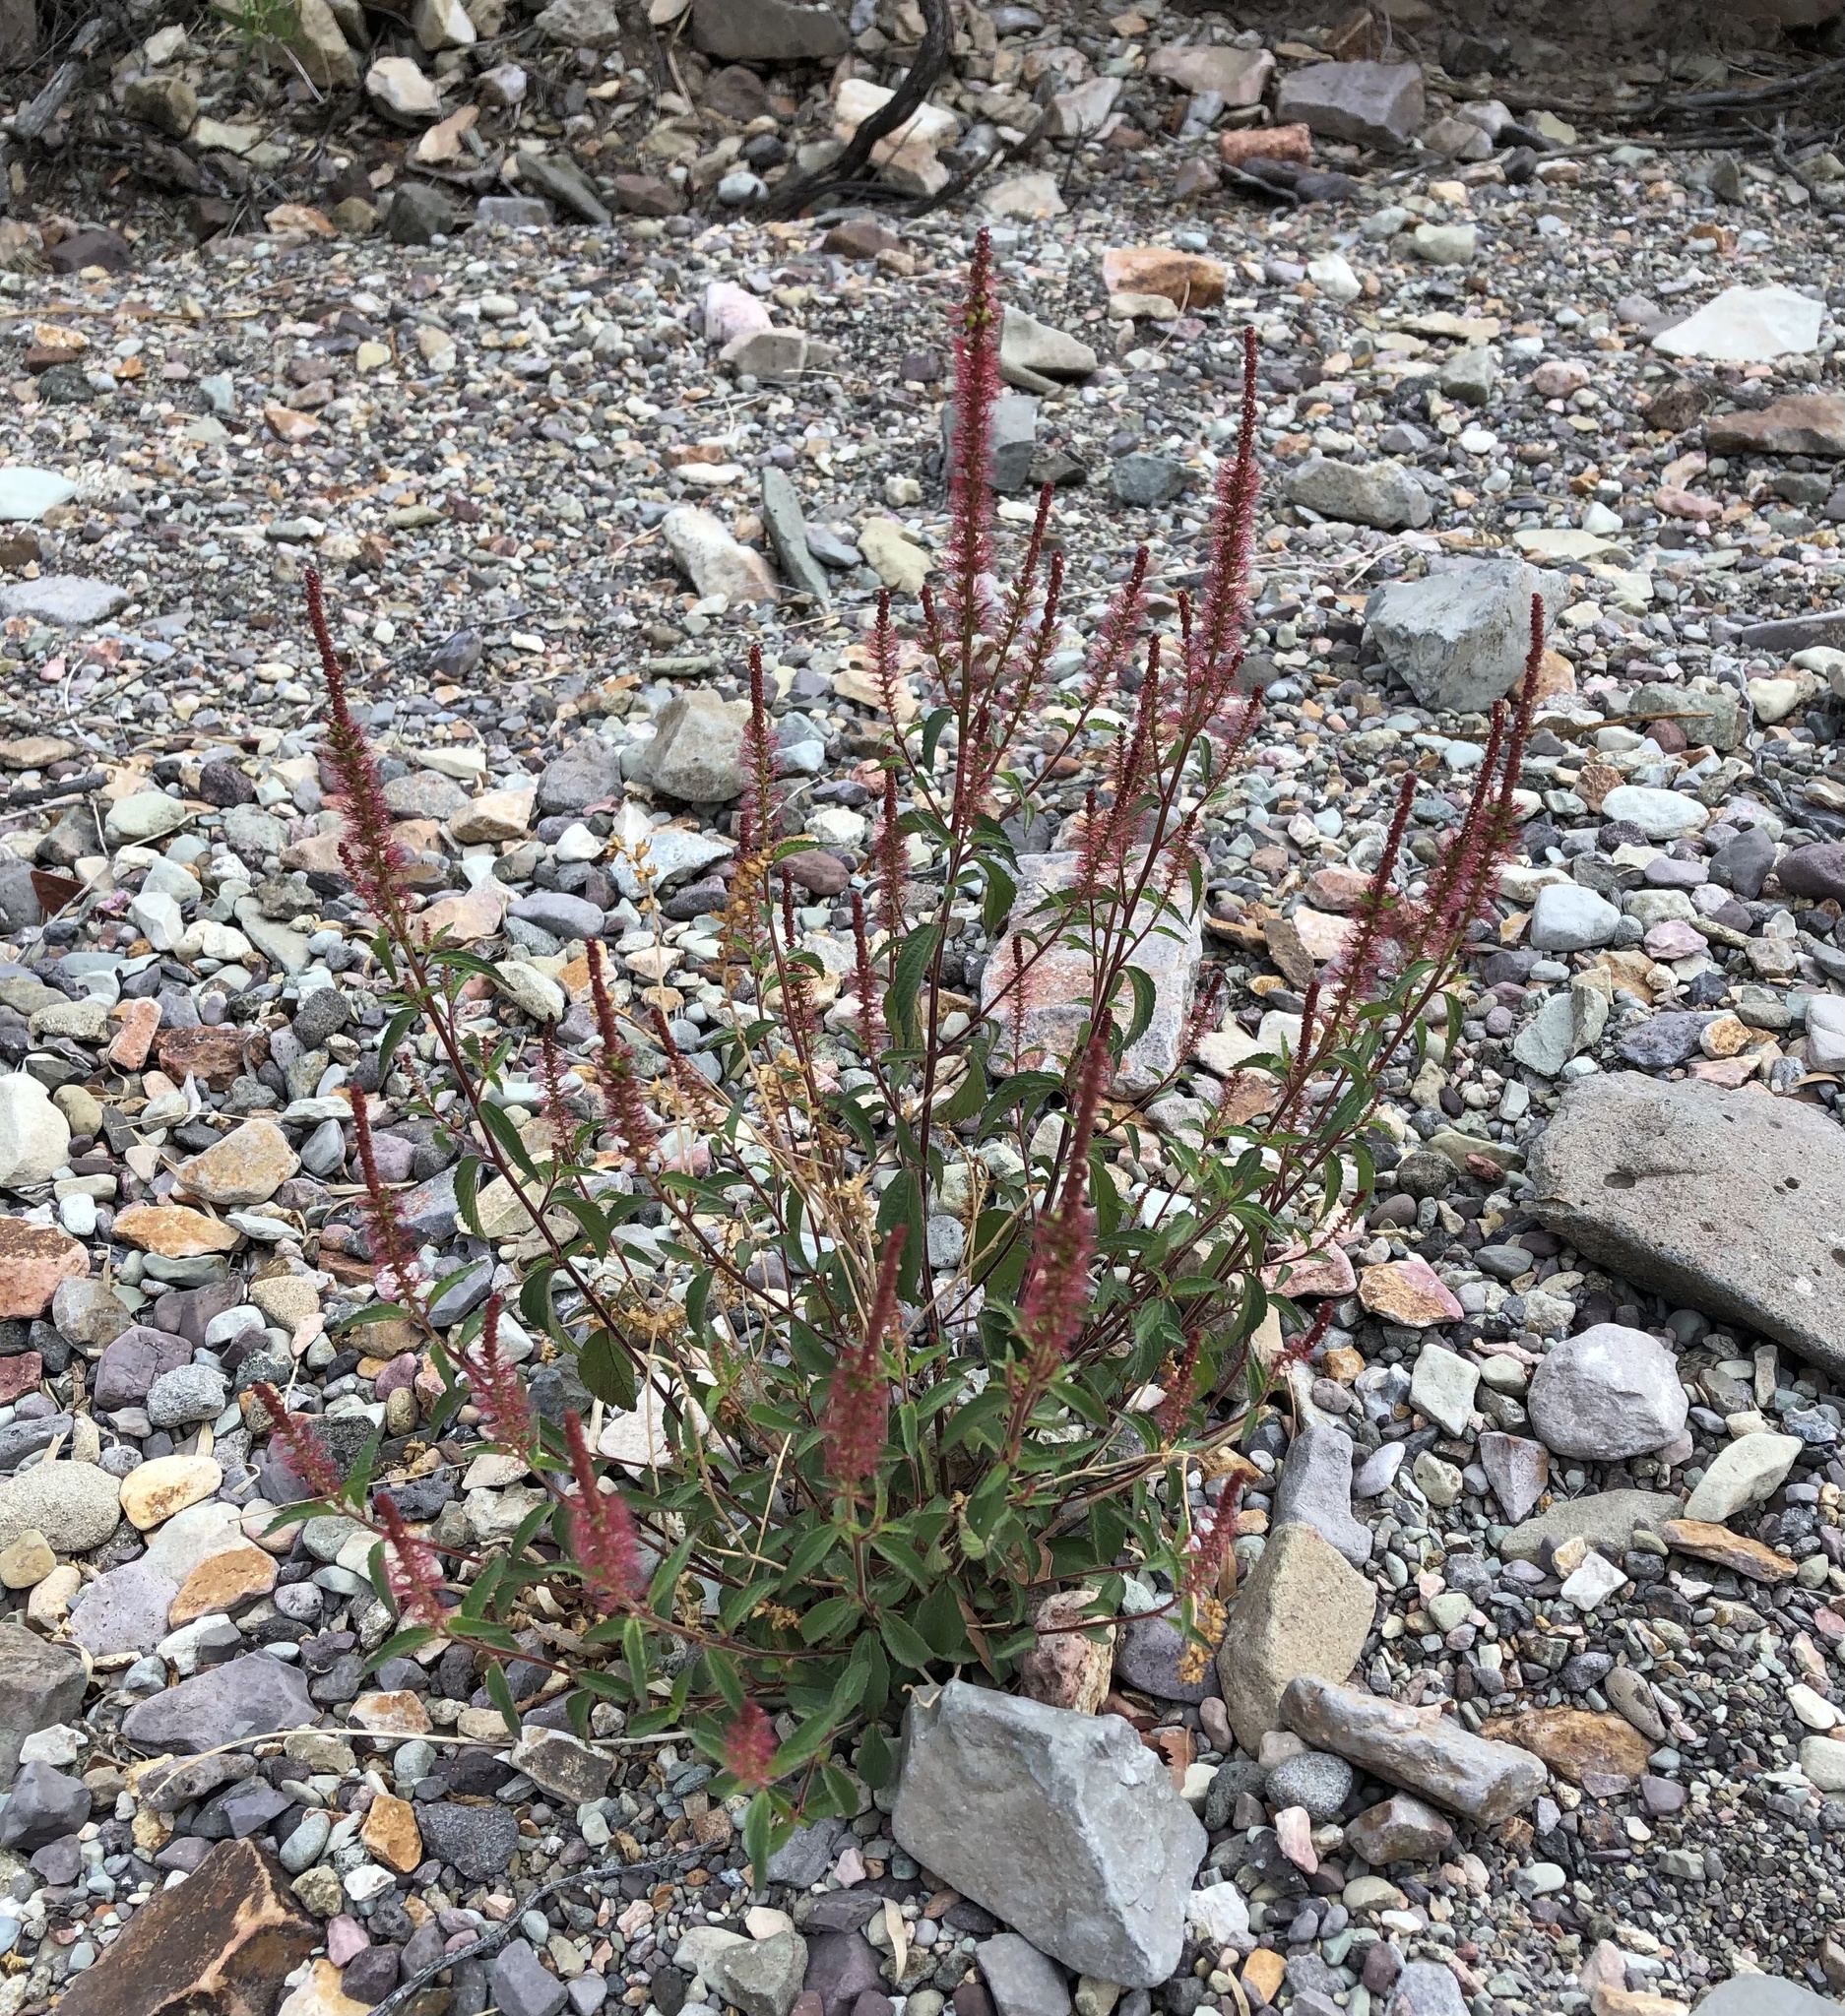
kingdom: Plantae
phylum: Tracheophyta
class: Magnoliopsida
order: Malpighiales
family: Euphorbiaceae
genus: Acalypha
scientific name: Acalypha phleoides
